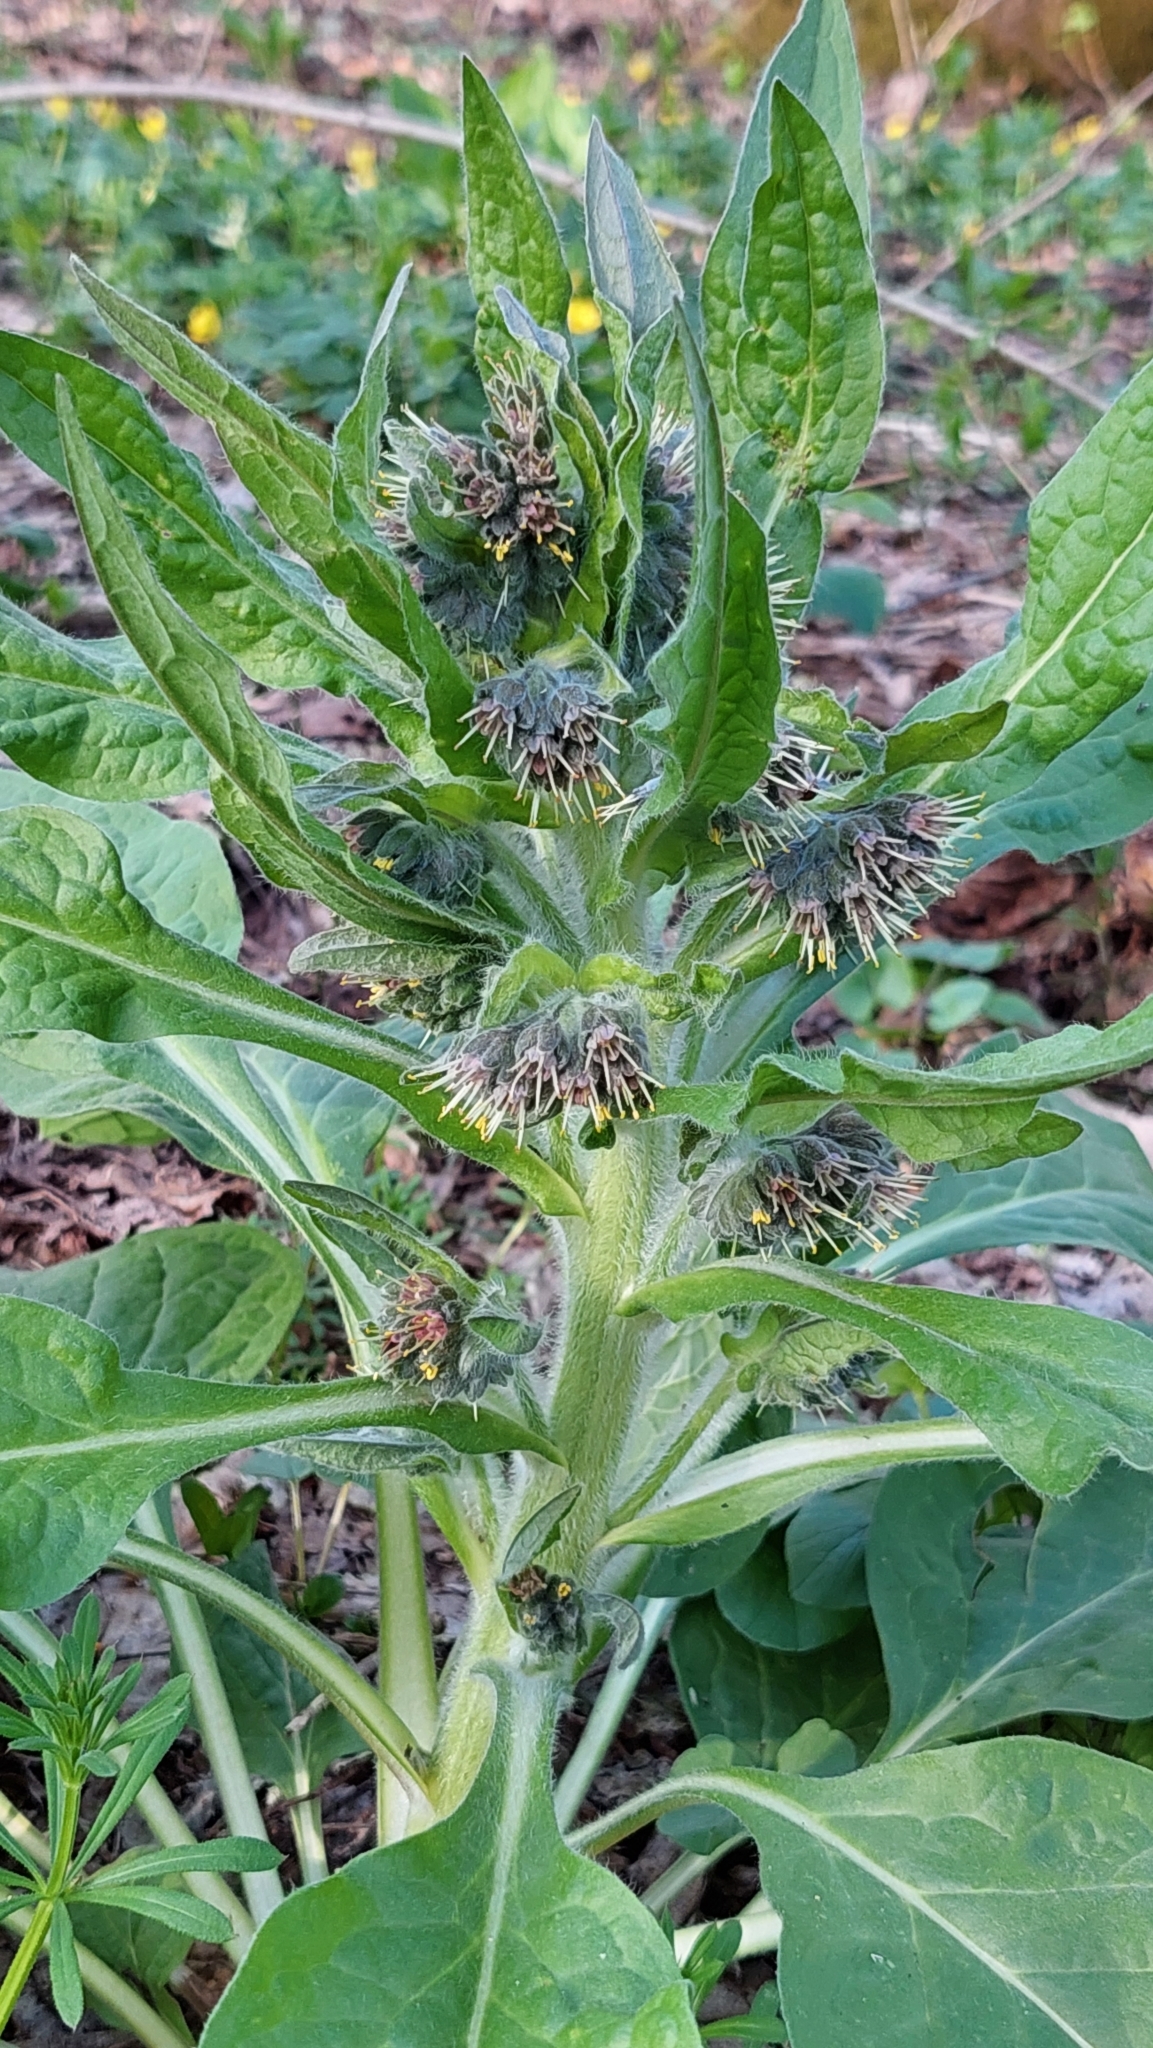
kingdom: Plantae
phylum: Tracheophyta
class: Magnoliopsida
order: Boraginales
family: Boraginaceae
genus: Solenanthus
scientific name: Solenanthus dubius
